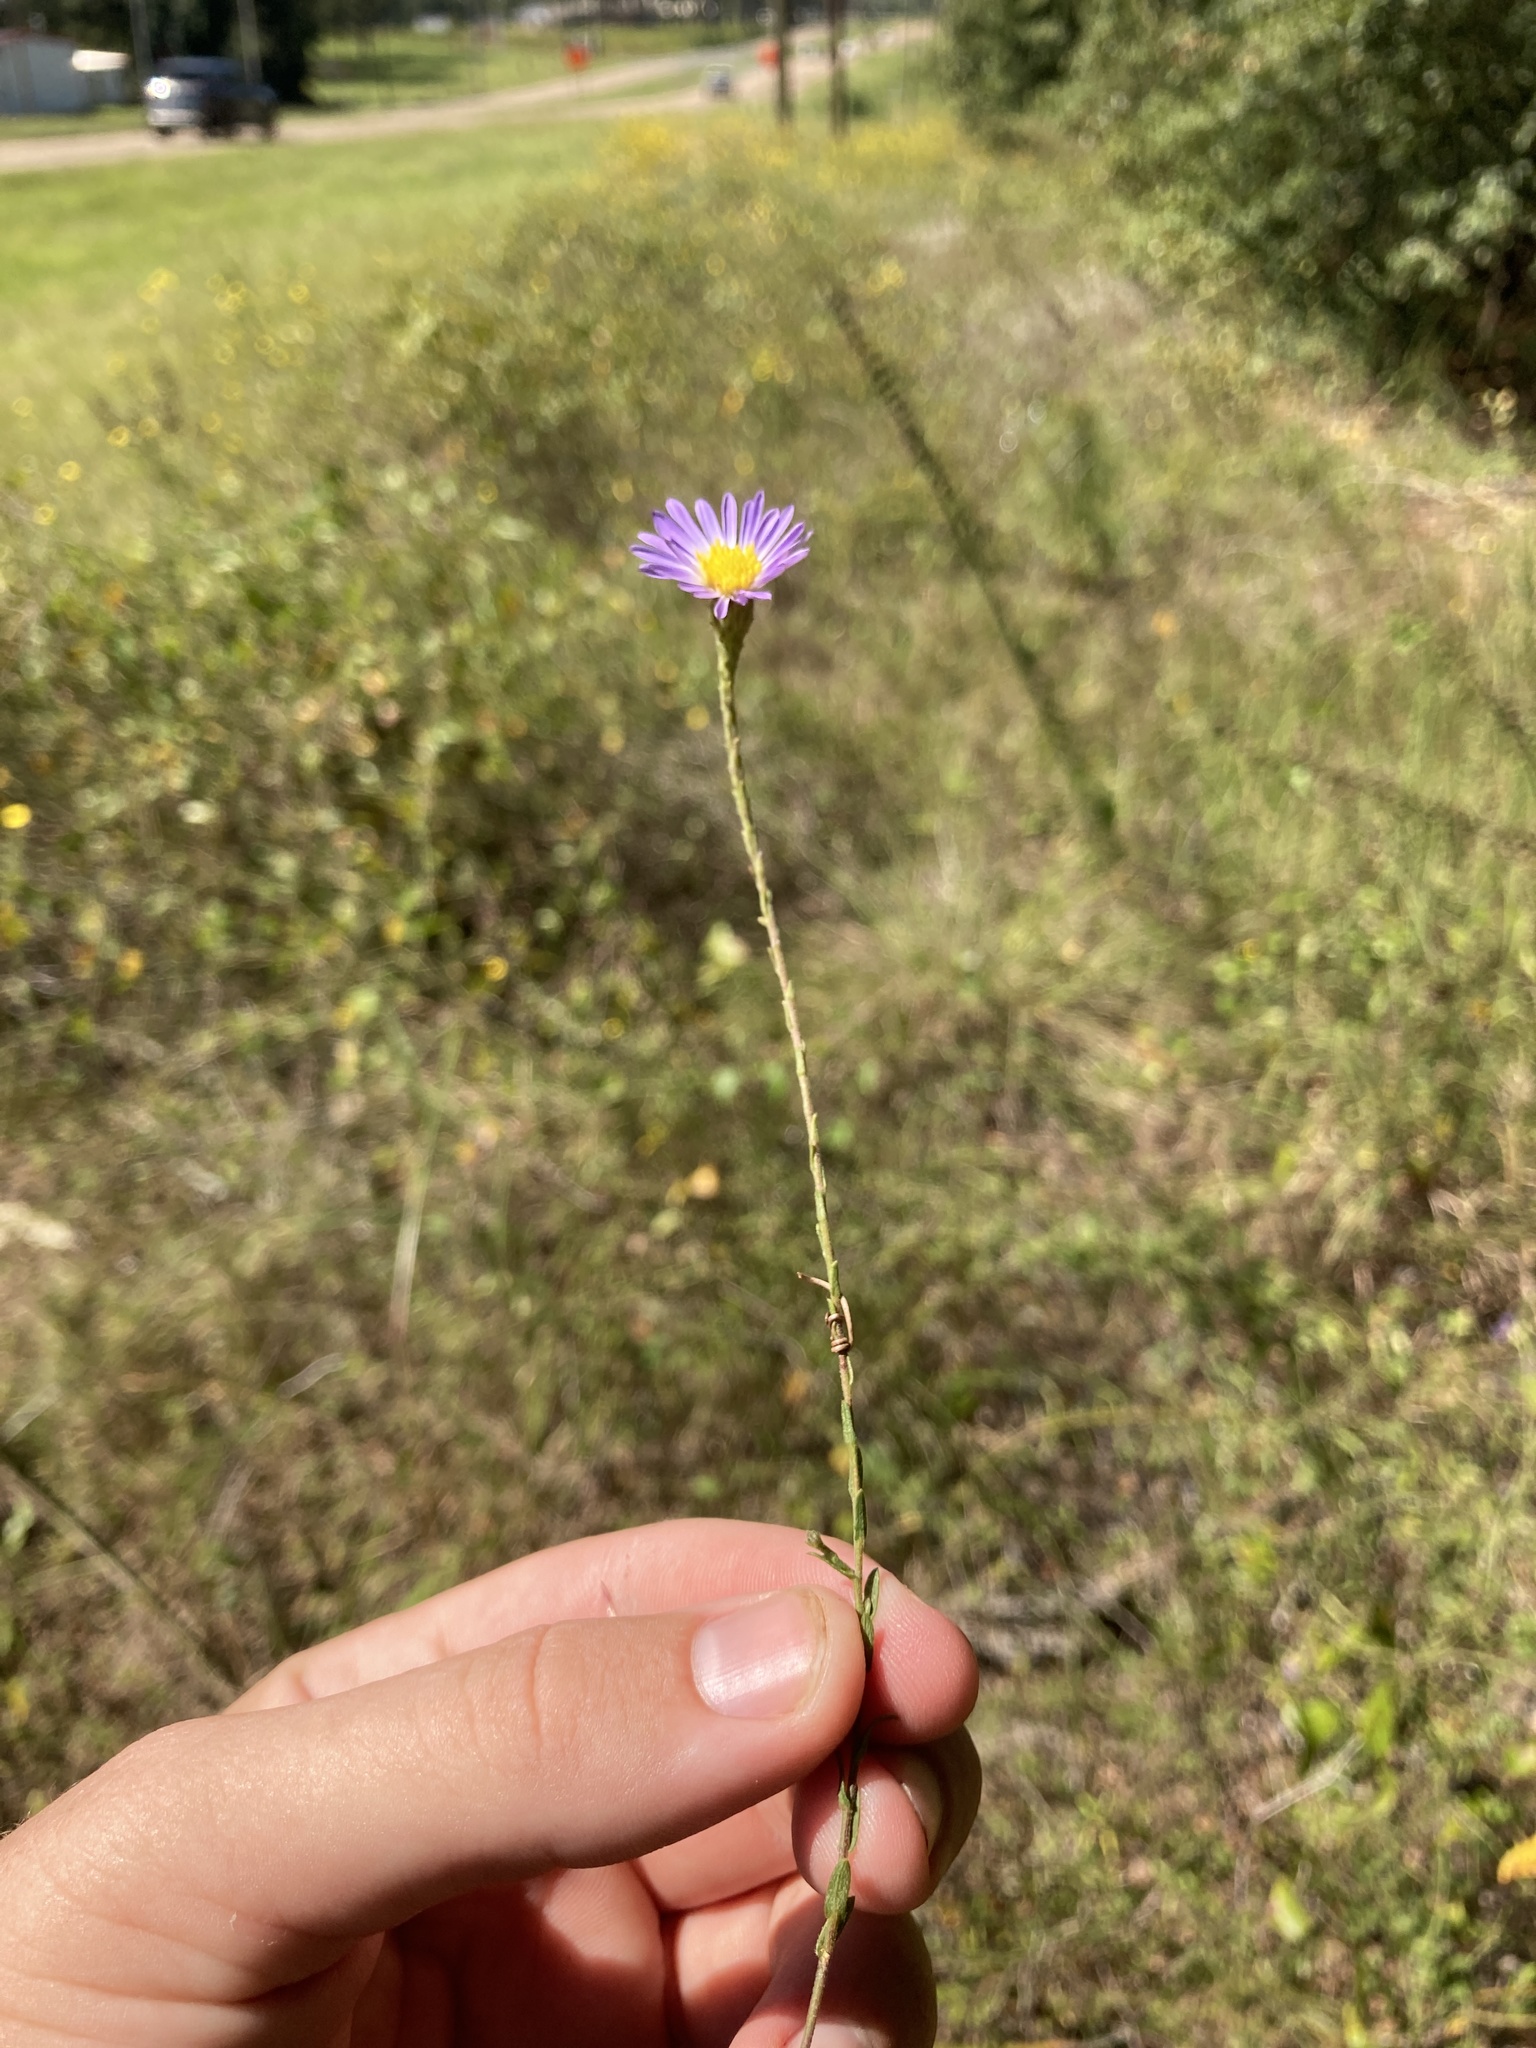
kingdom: Plantae
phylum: Tracheophyta
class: Magnoliopsida
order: Asterales
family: Asteraceae
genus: Symphyotrichum
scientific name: Symphyotrichum patens
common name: Late purple aster
